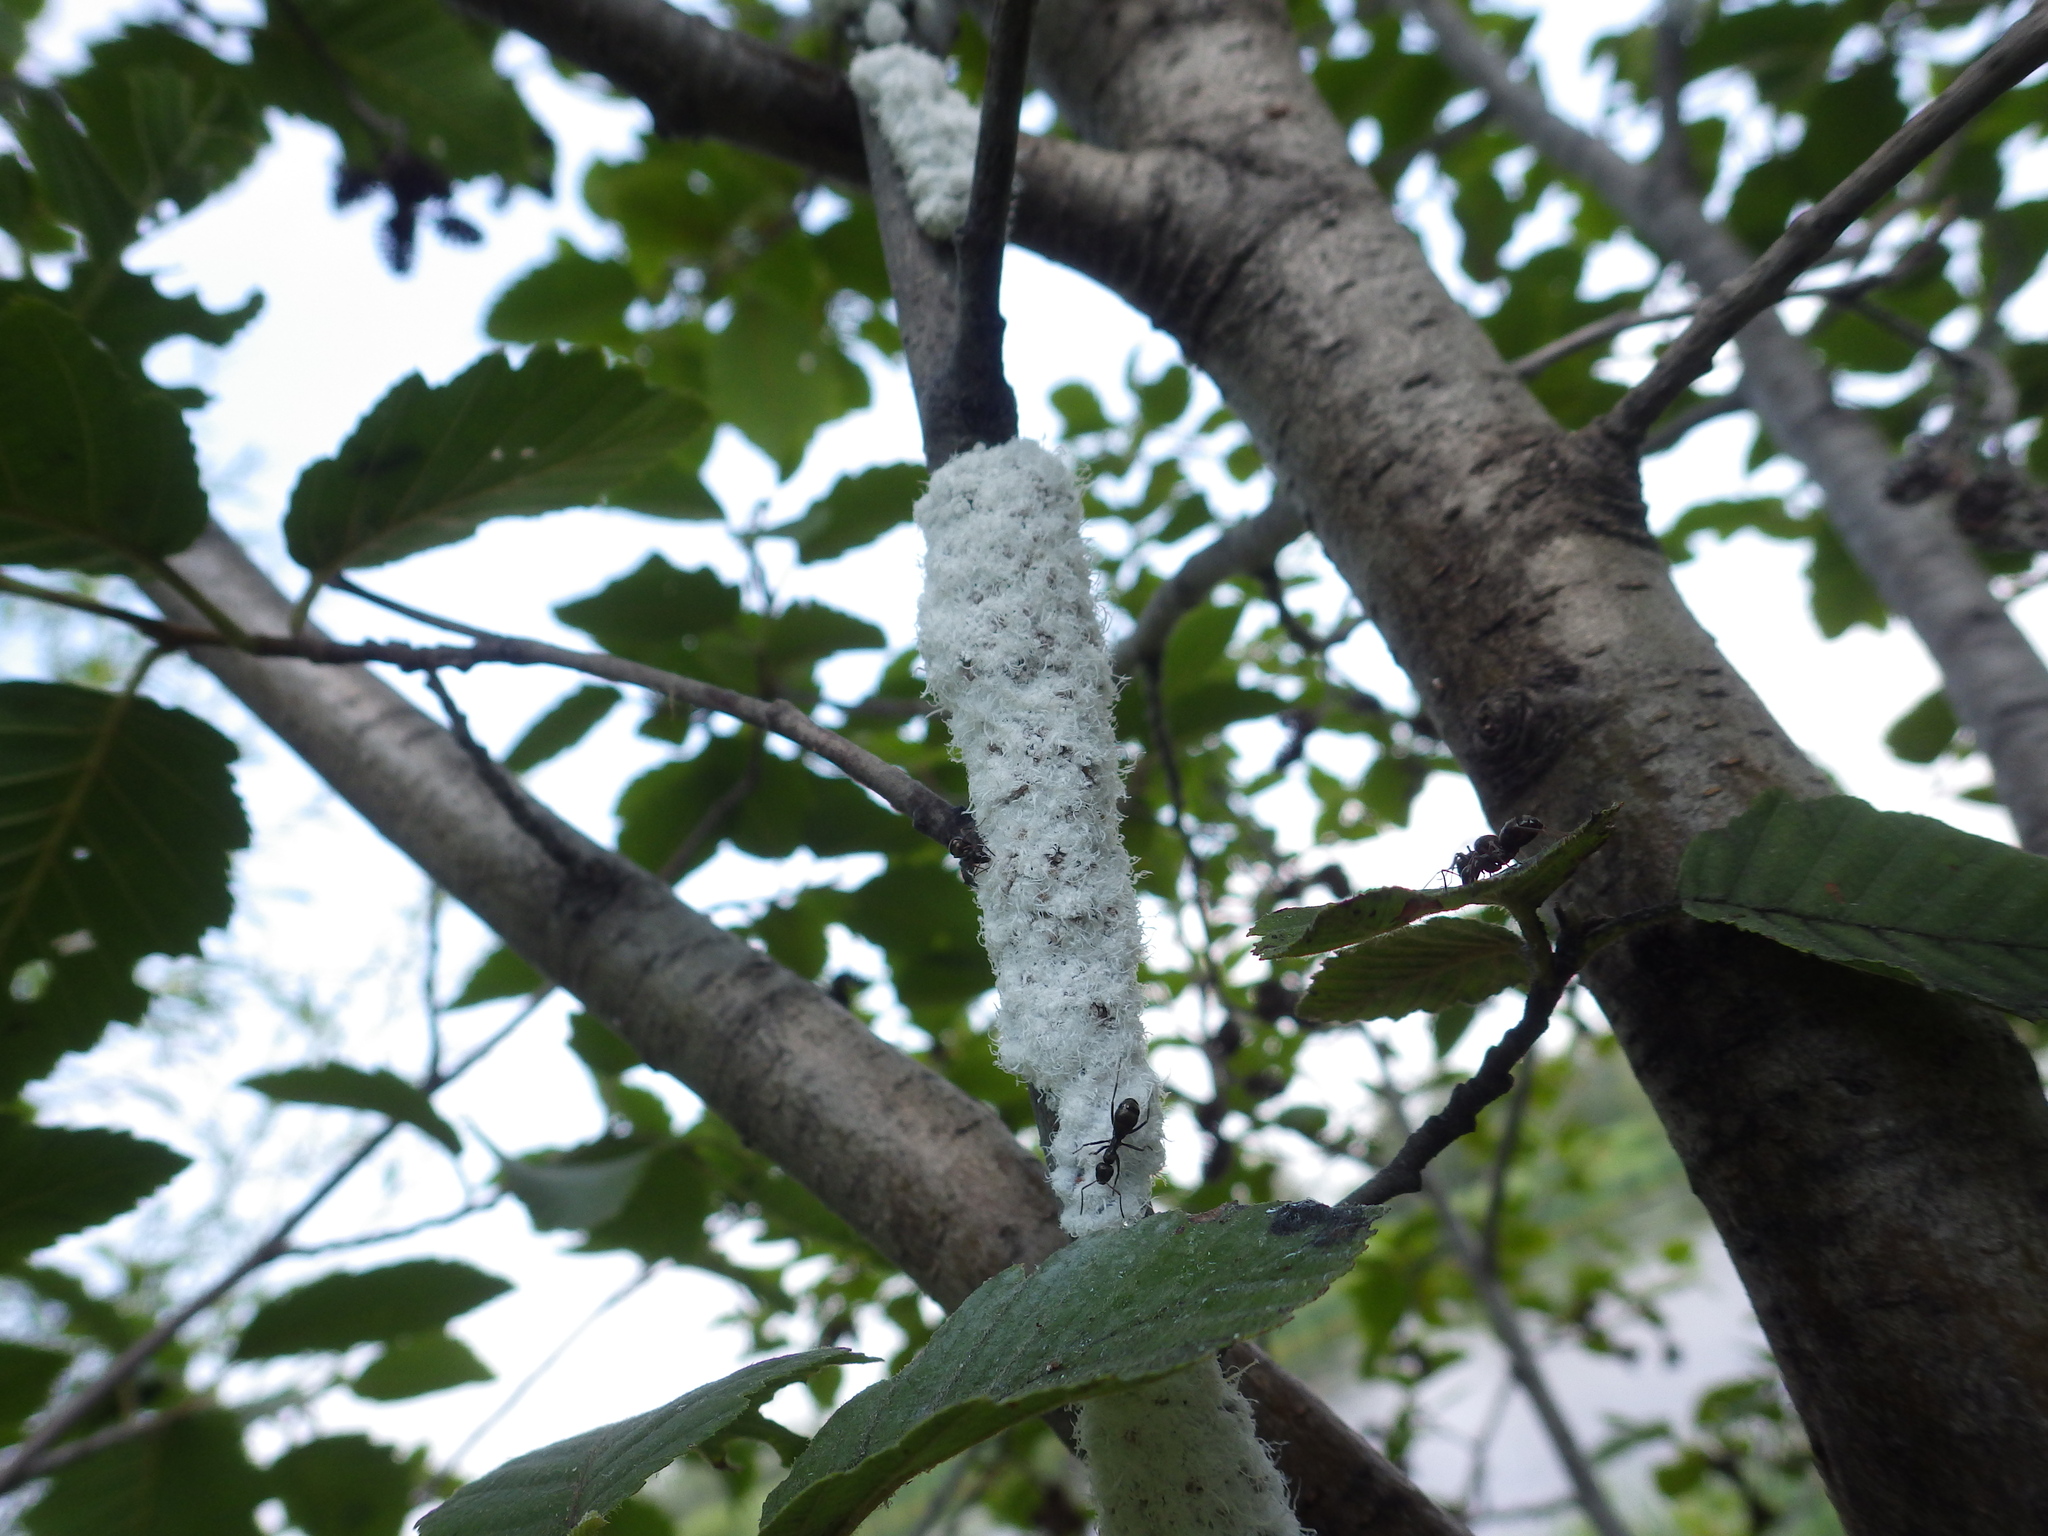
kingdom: Animalia
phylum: Arthropoda
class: Insecta
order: Hemiptera
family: Aphididae
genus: Prociphilus
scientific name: Prociphilus tessellatus
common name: Woolly alder aphid
